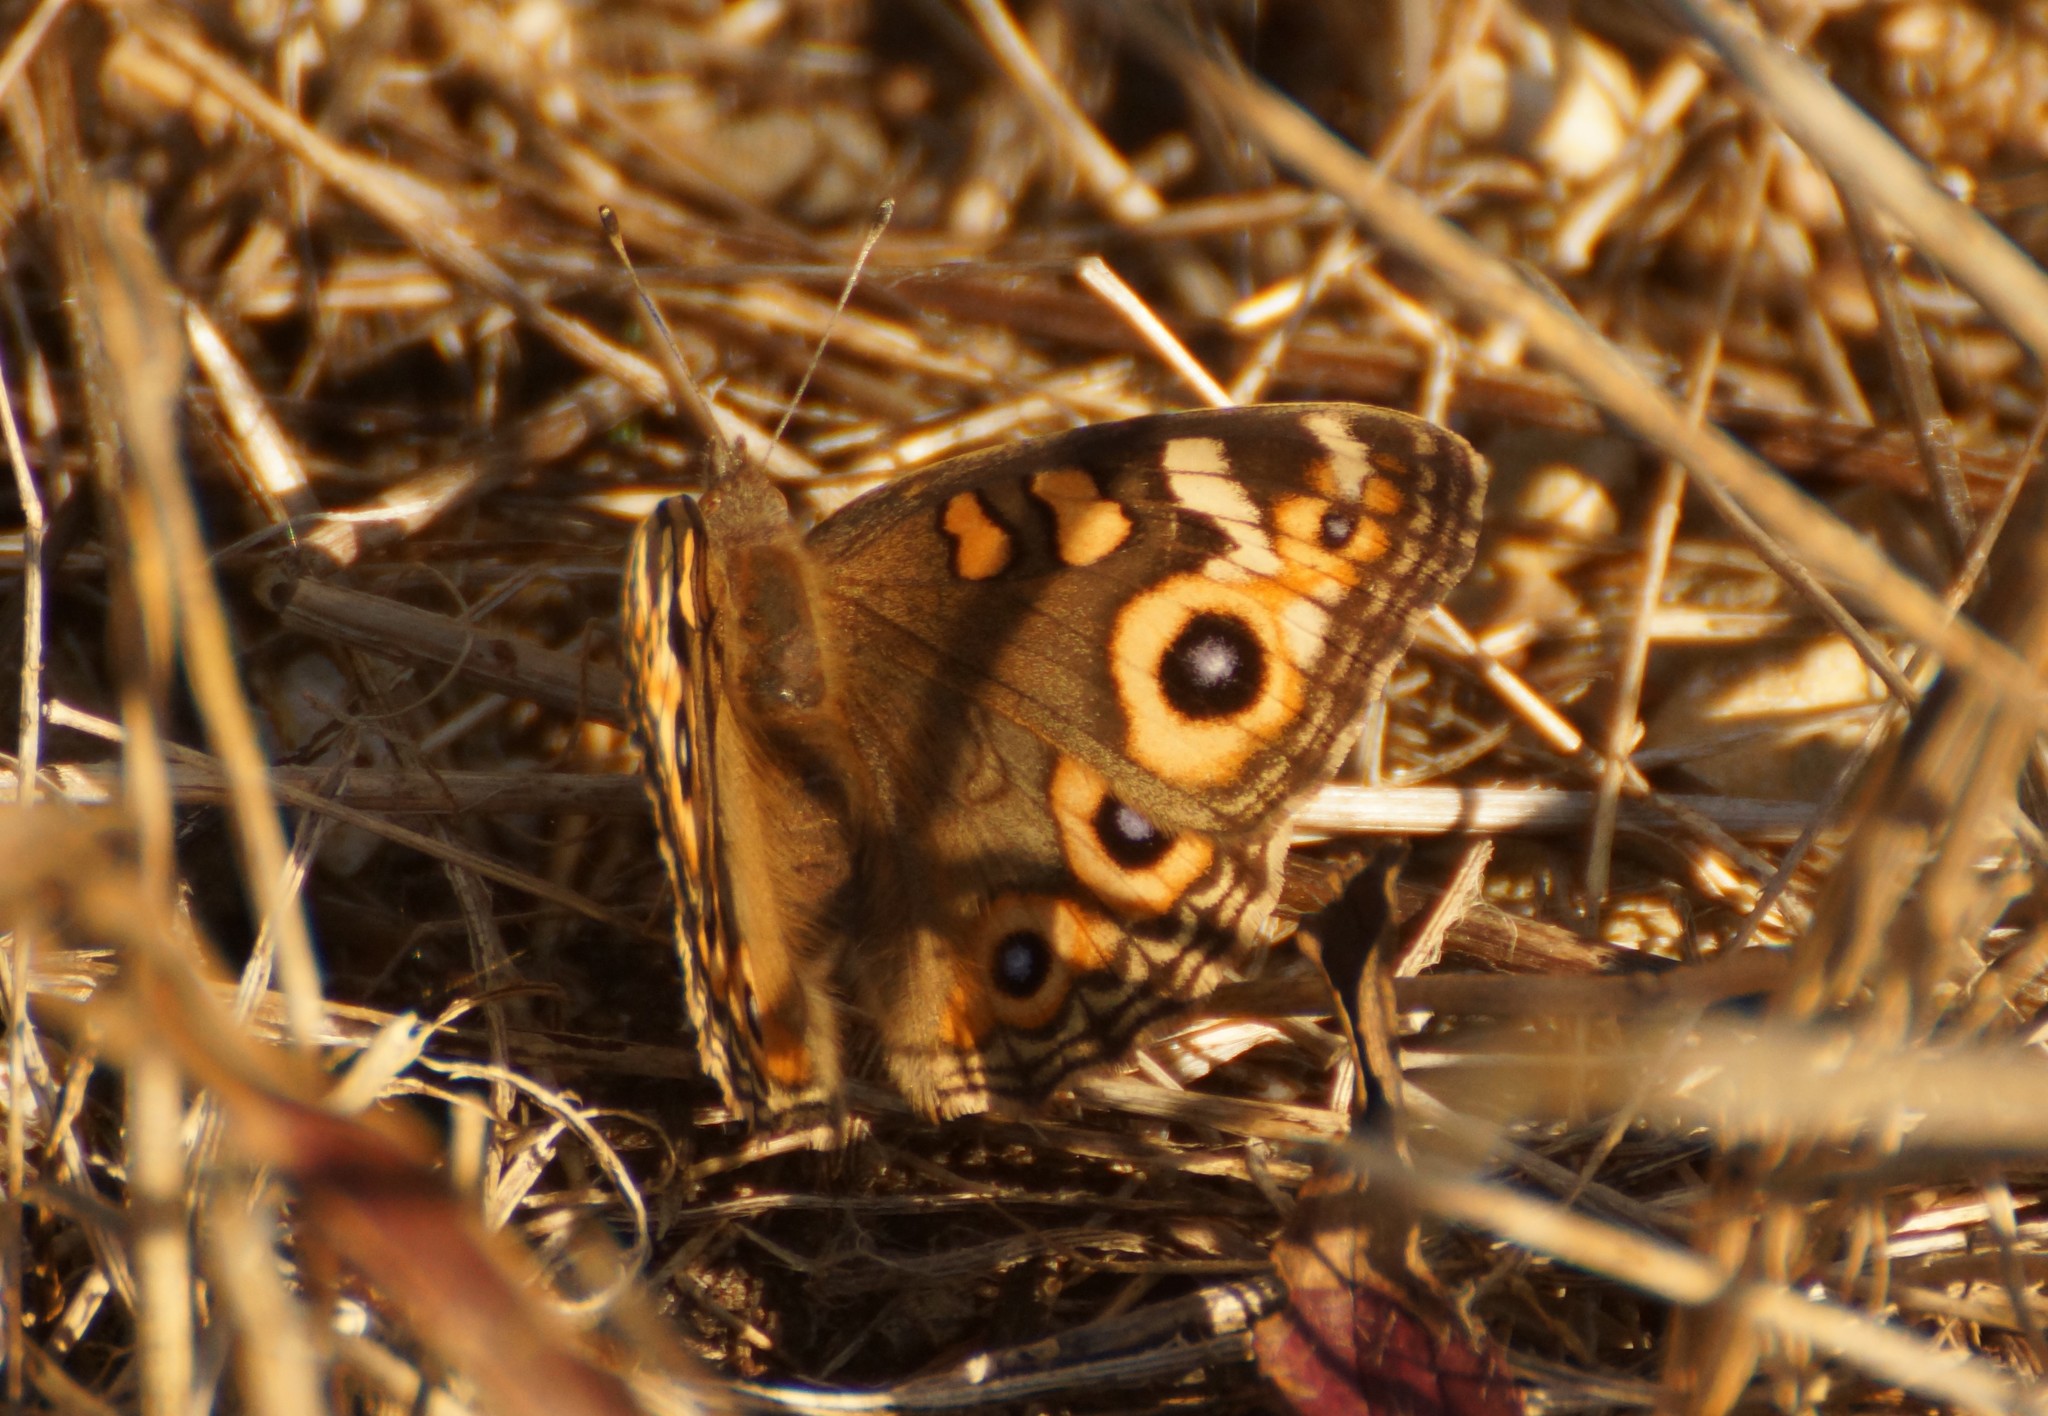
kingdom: Animalia
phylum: Arthropoda
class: Insecta
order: Lepidoptera
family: Nymphalidae
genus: Junonia
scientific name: Junonia villida
